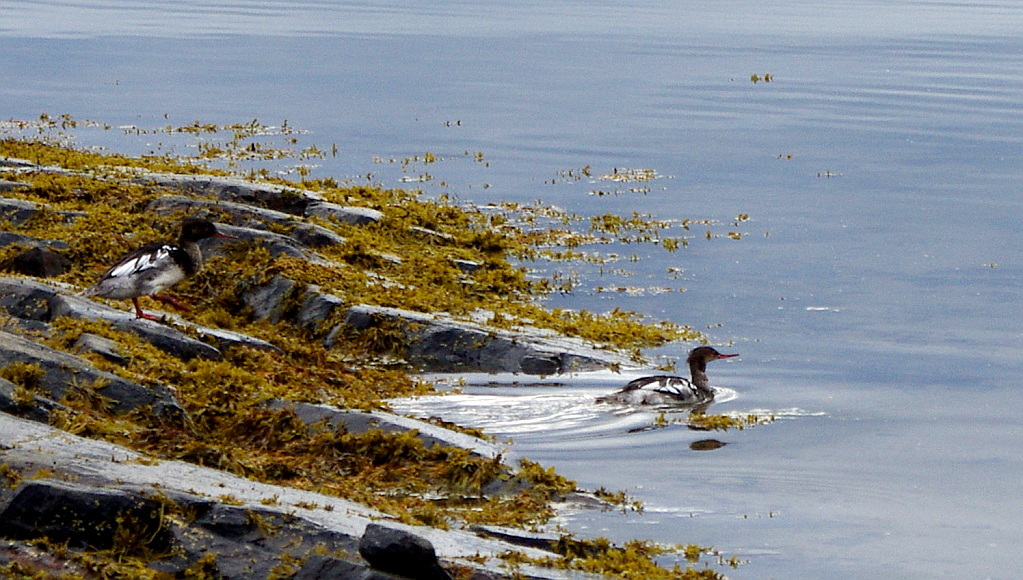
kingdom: Animalia
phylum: Chordata
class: Aves
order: Anseriformes
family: Anatidae
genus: Mergus
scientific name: Mergus serrator
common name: Red-breasted merganser
